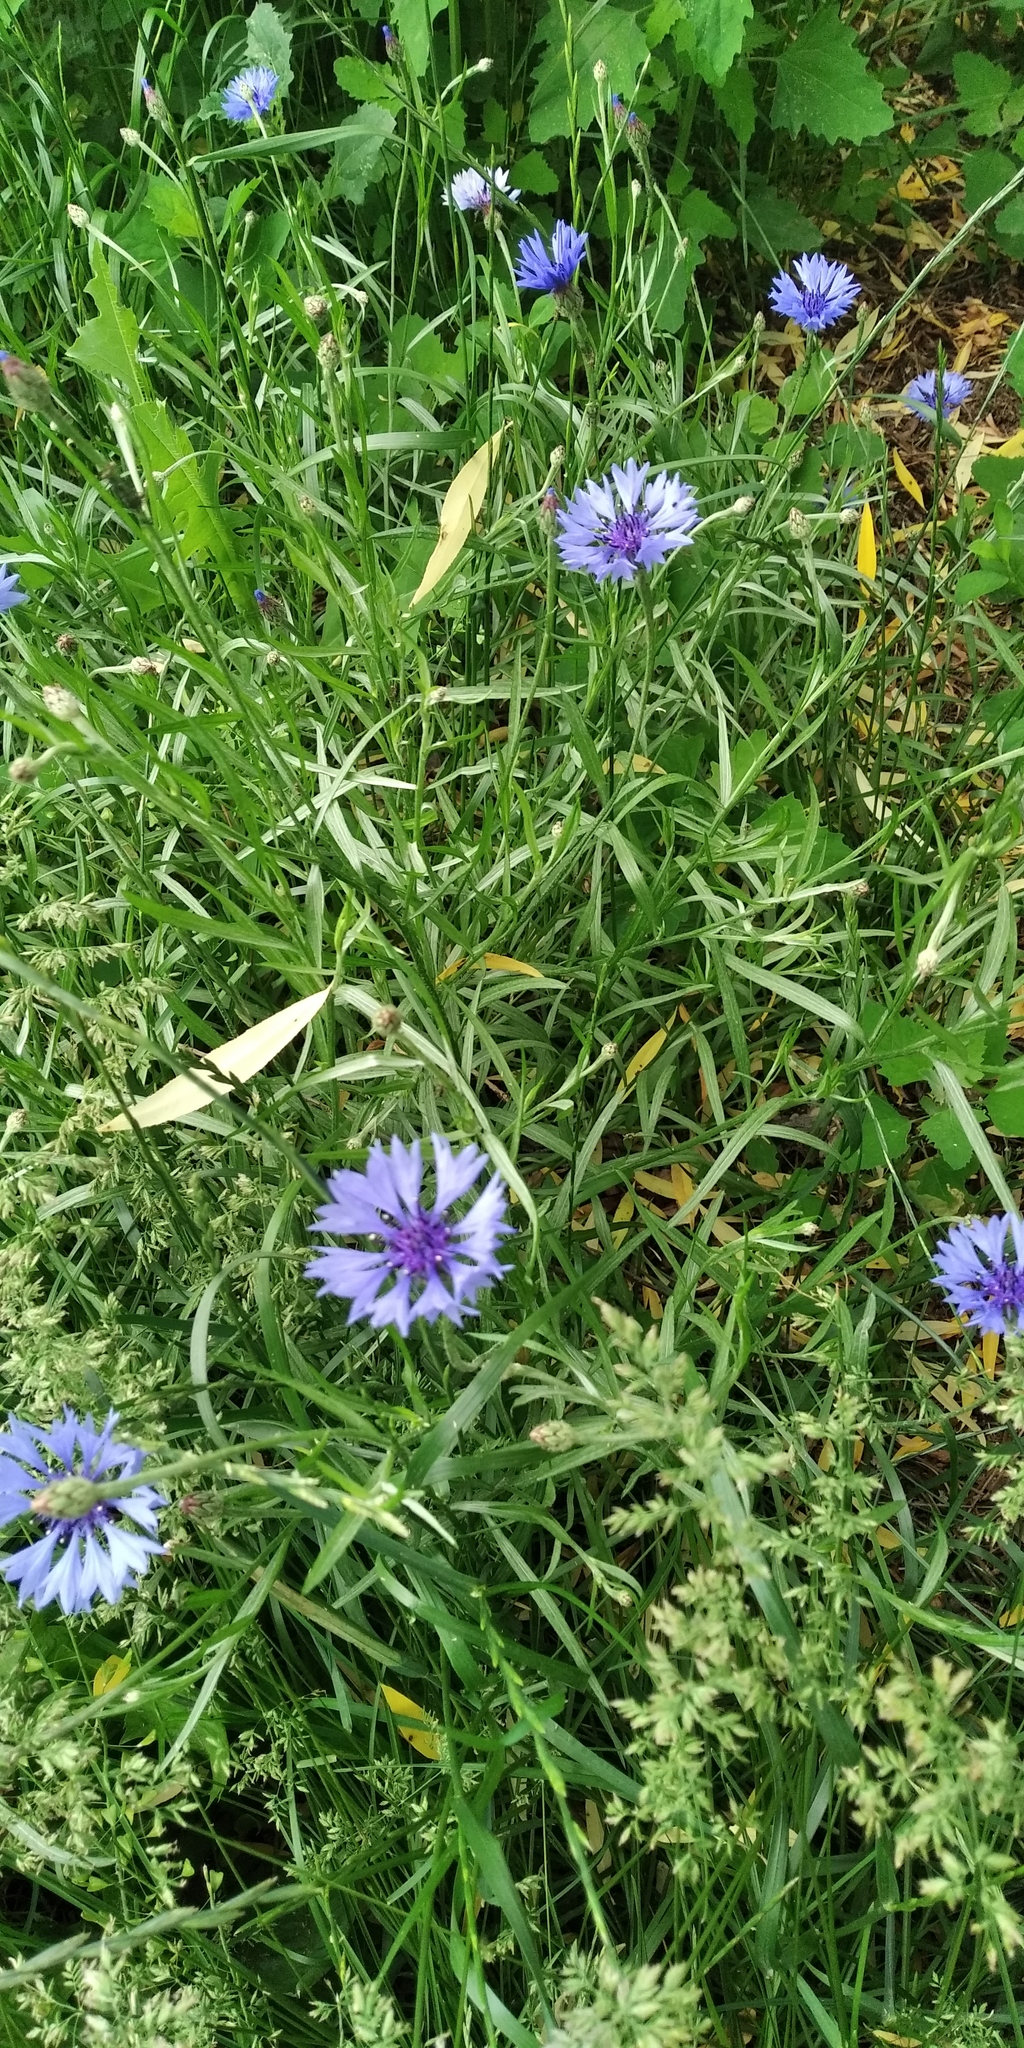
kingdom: Plantae
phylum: Tracheophyta
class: Magnoliopsida
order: Asterales
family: Asteraceae
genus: Centaurea
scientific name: Centaurea cyanus
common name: Cornflower
